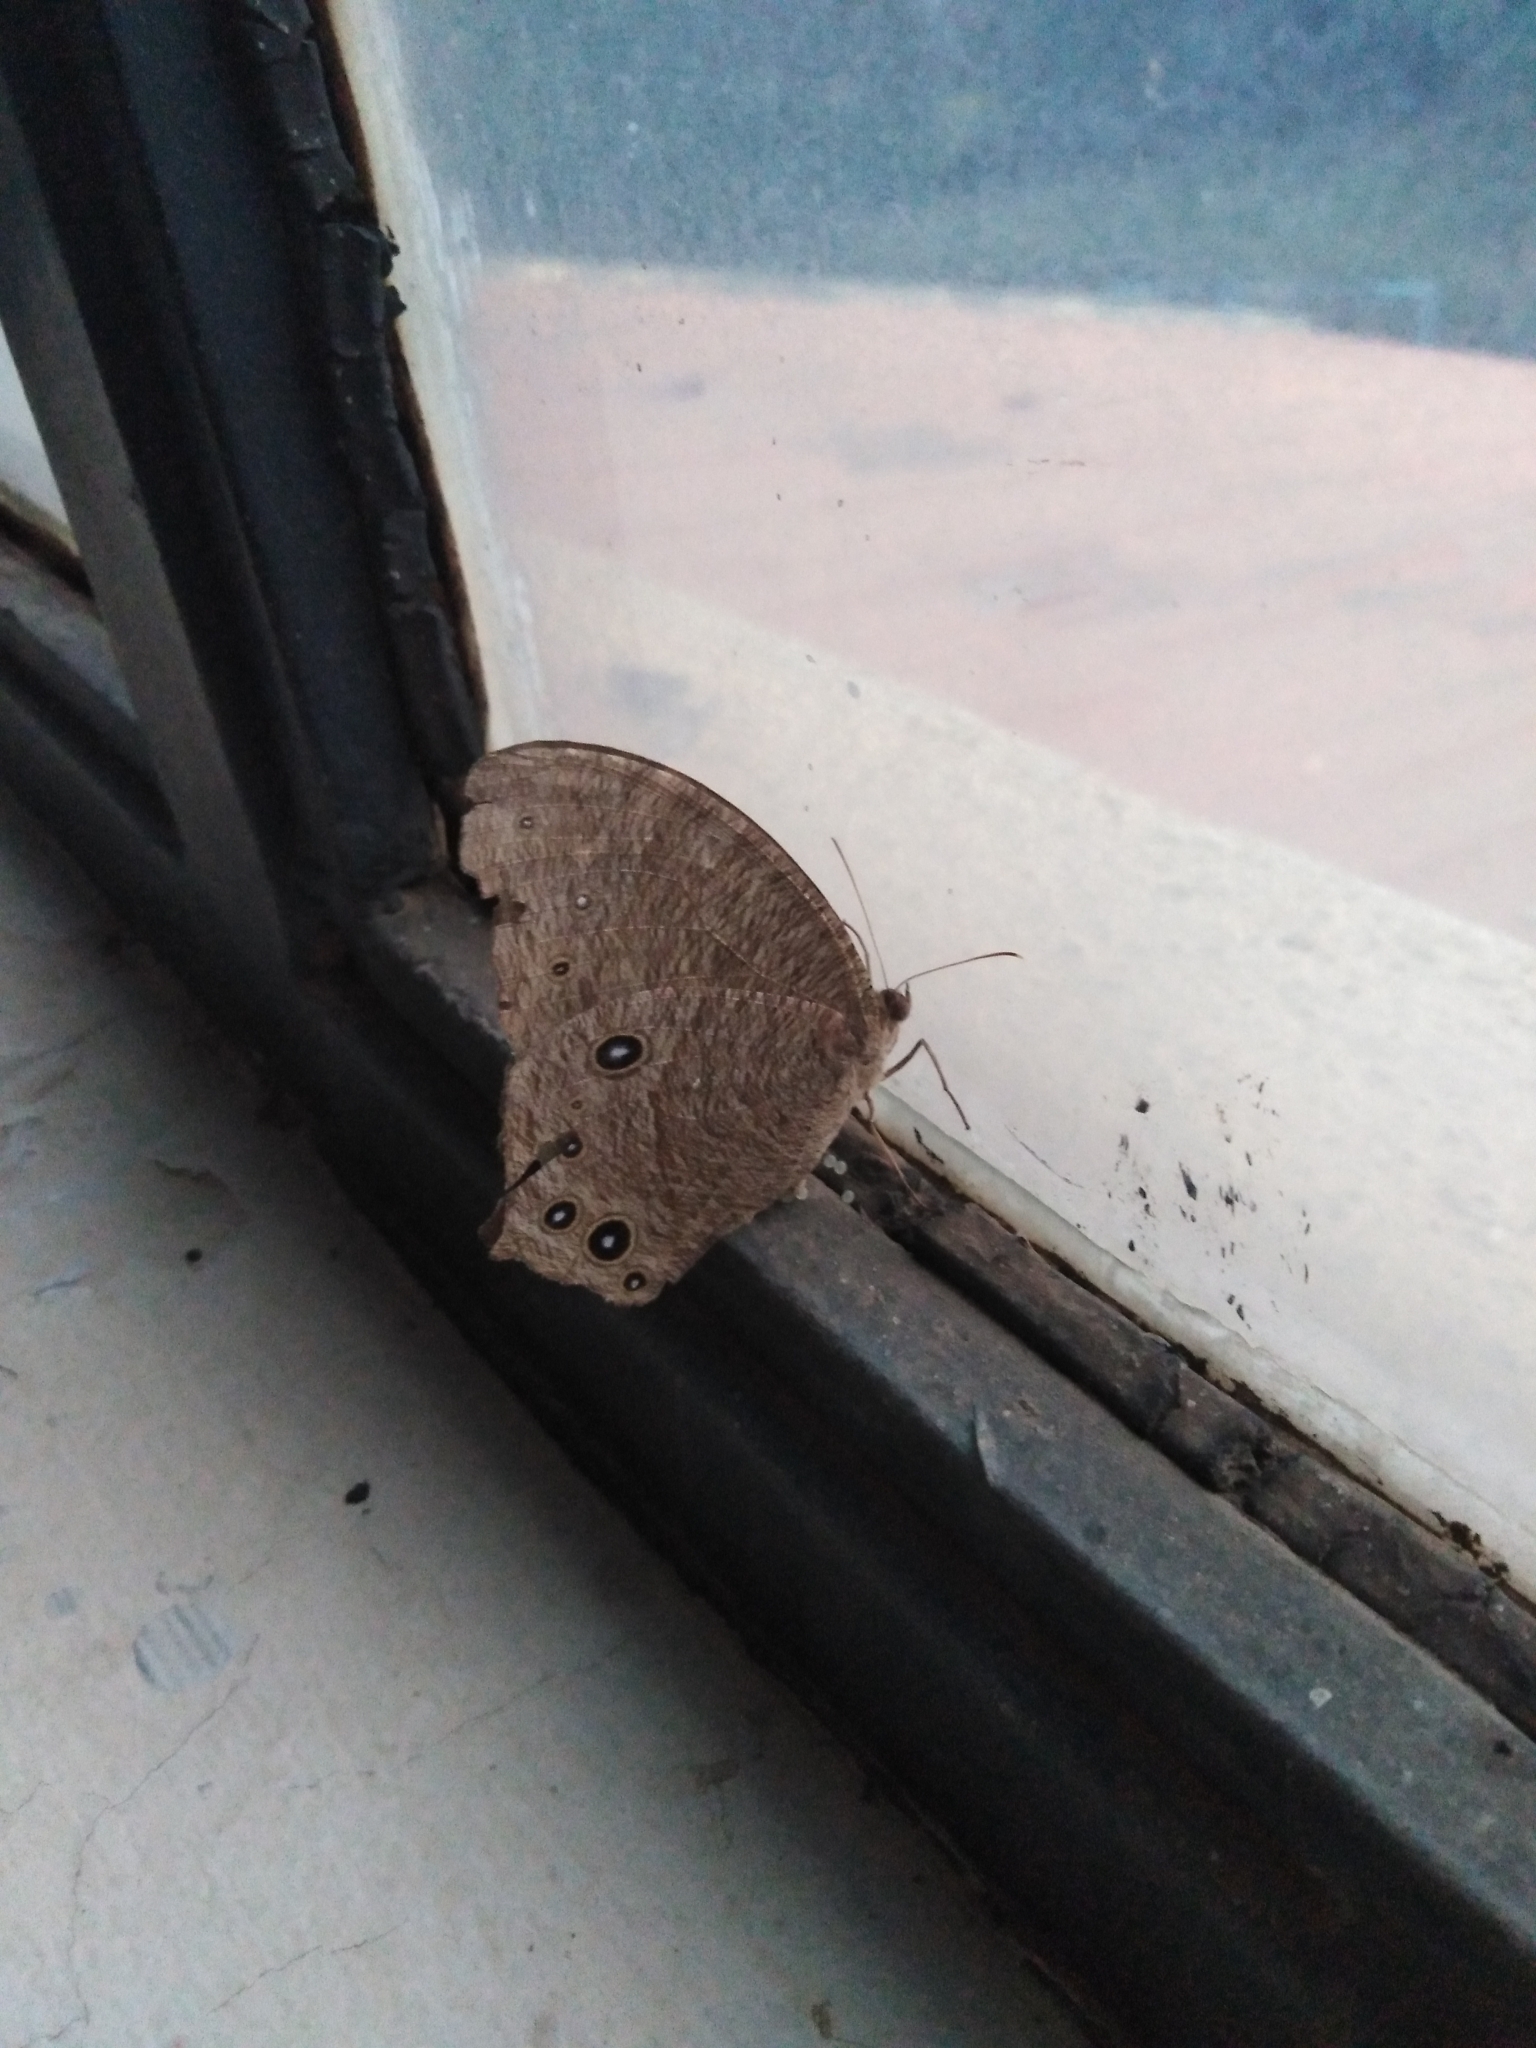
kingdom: Animalia
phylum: Arthropoda
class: Insecta
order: Lepidoptera
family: Nymphalidae
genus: Melanitis
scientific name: Melanitis leda
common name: Twilight brown
